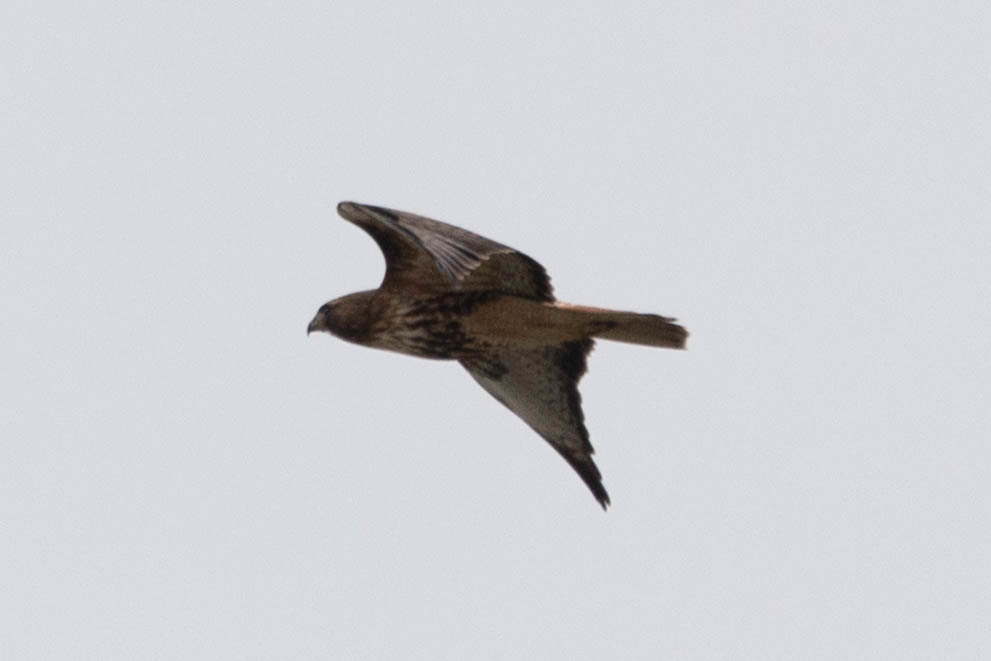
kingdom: Animalia
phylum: Chordata
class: Aves
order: Accipitriformes
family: Accipitridae
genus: Buteo
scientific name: Buteo jamaicensis
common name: Red-tailed hawk
